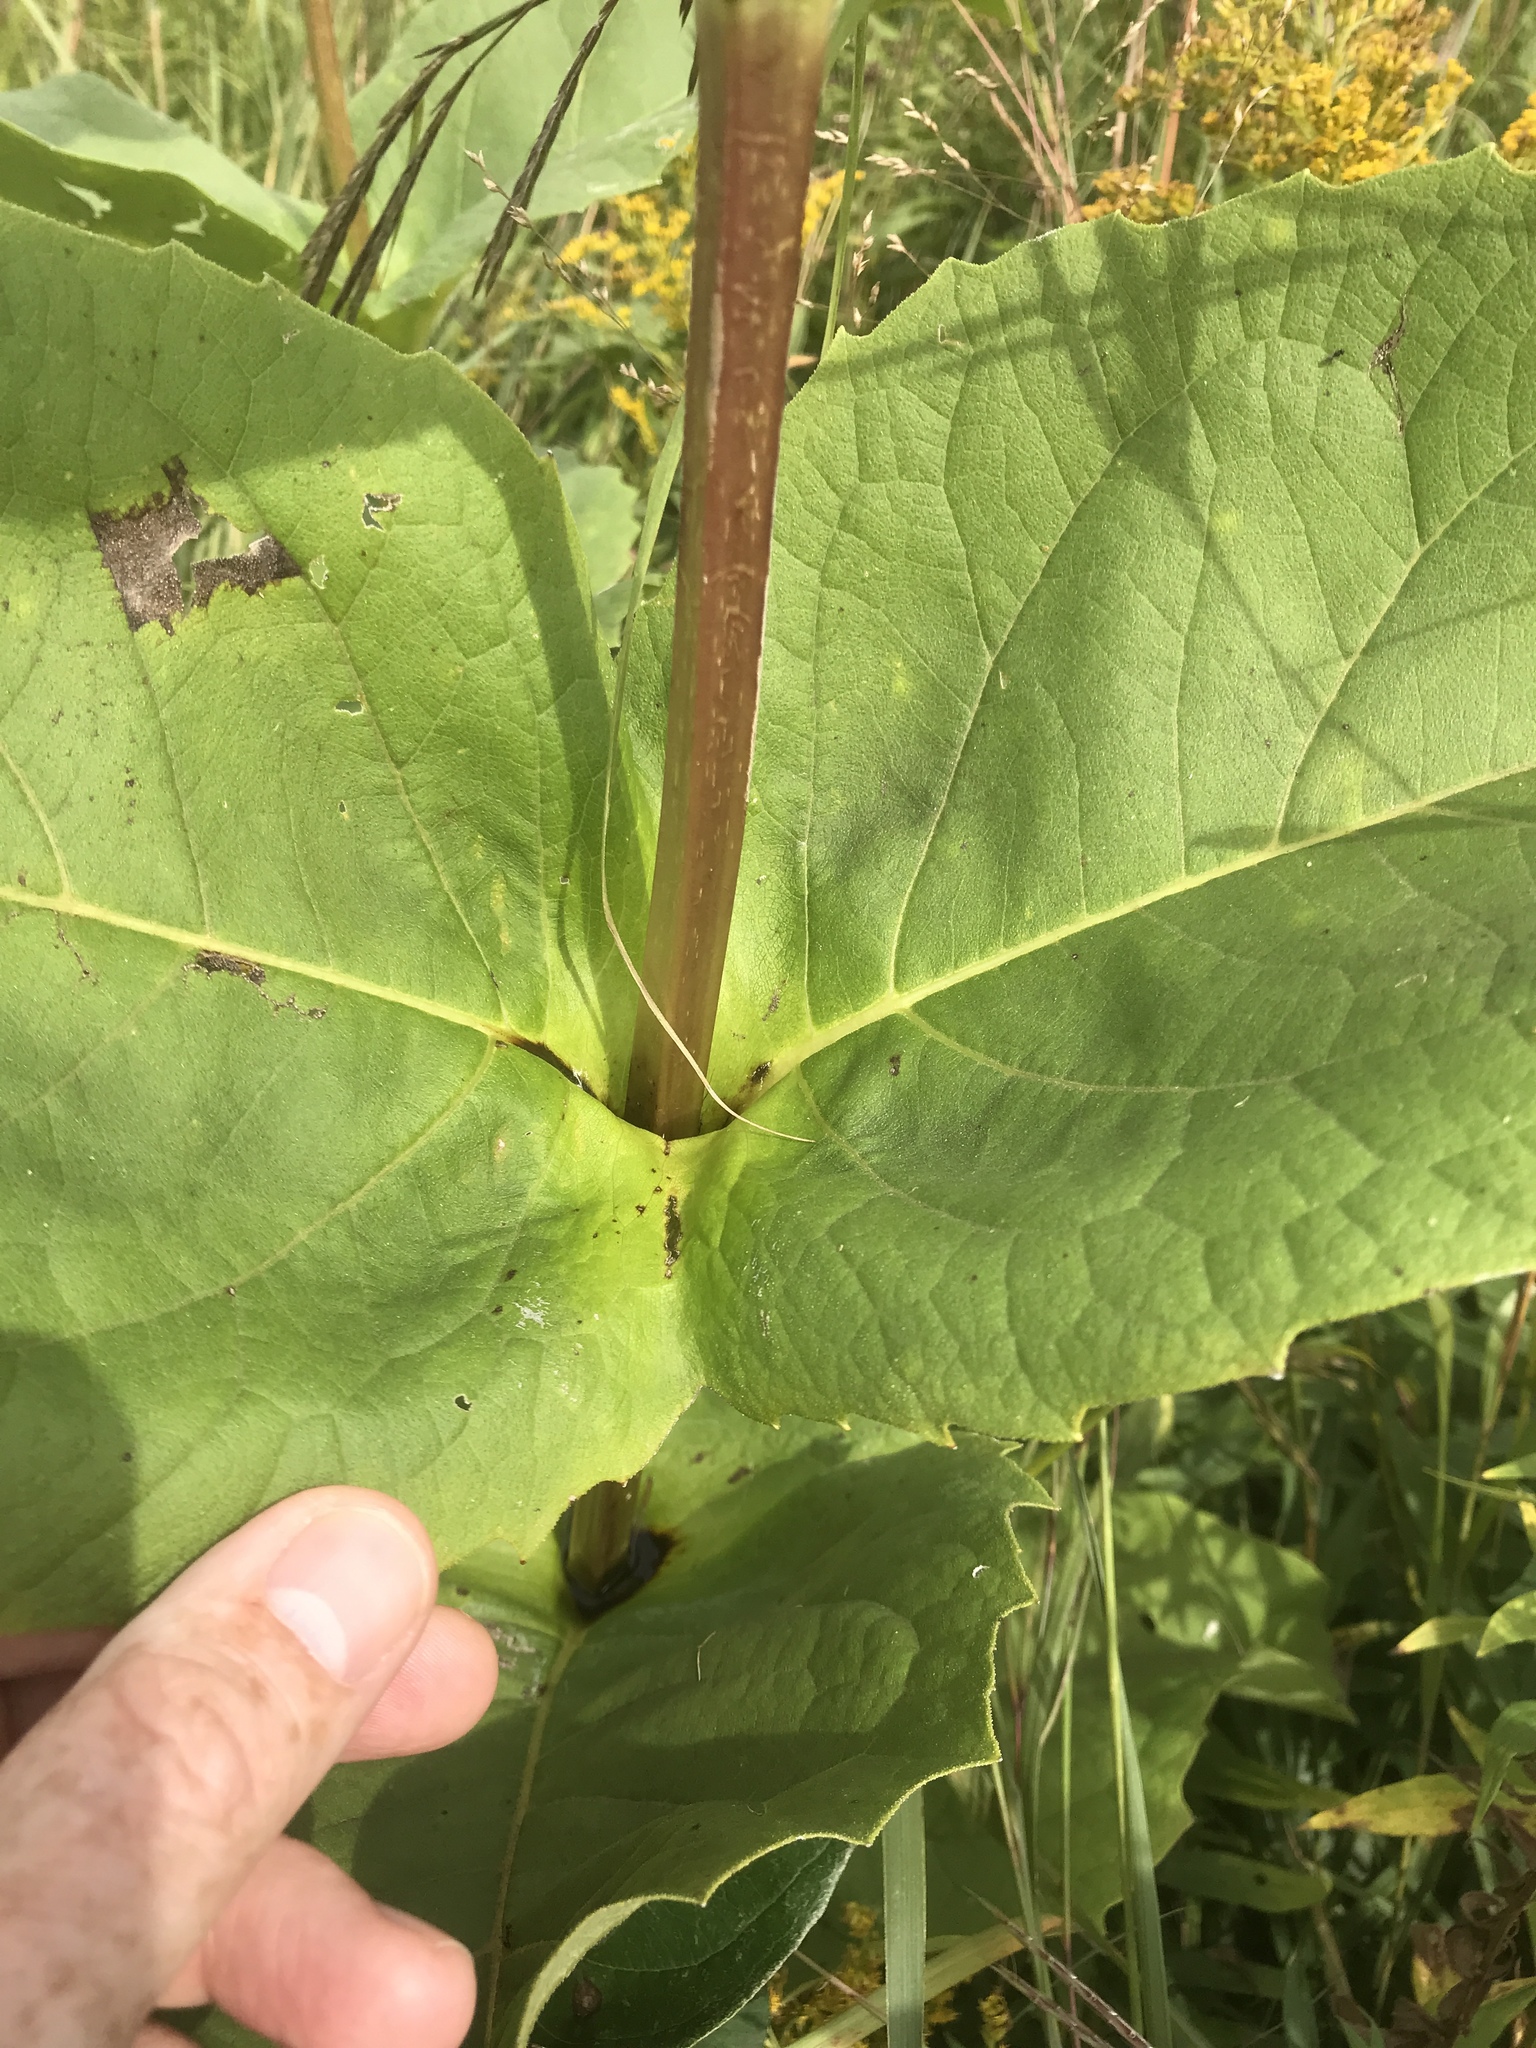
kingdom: Plantae
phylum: Tracheophyta
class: Magnoliopsida
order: Asterales
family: Asteraceae
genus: Silphium
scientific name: Silphium perfoliatum
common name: Cup-plant
